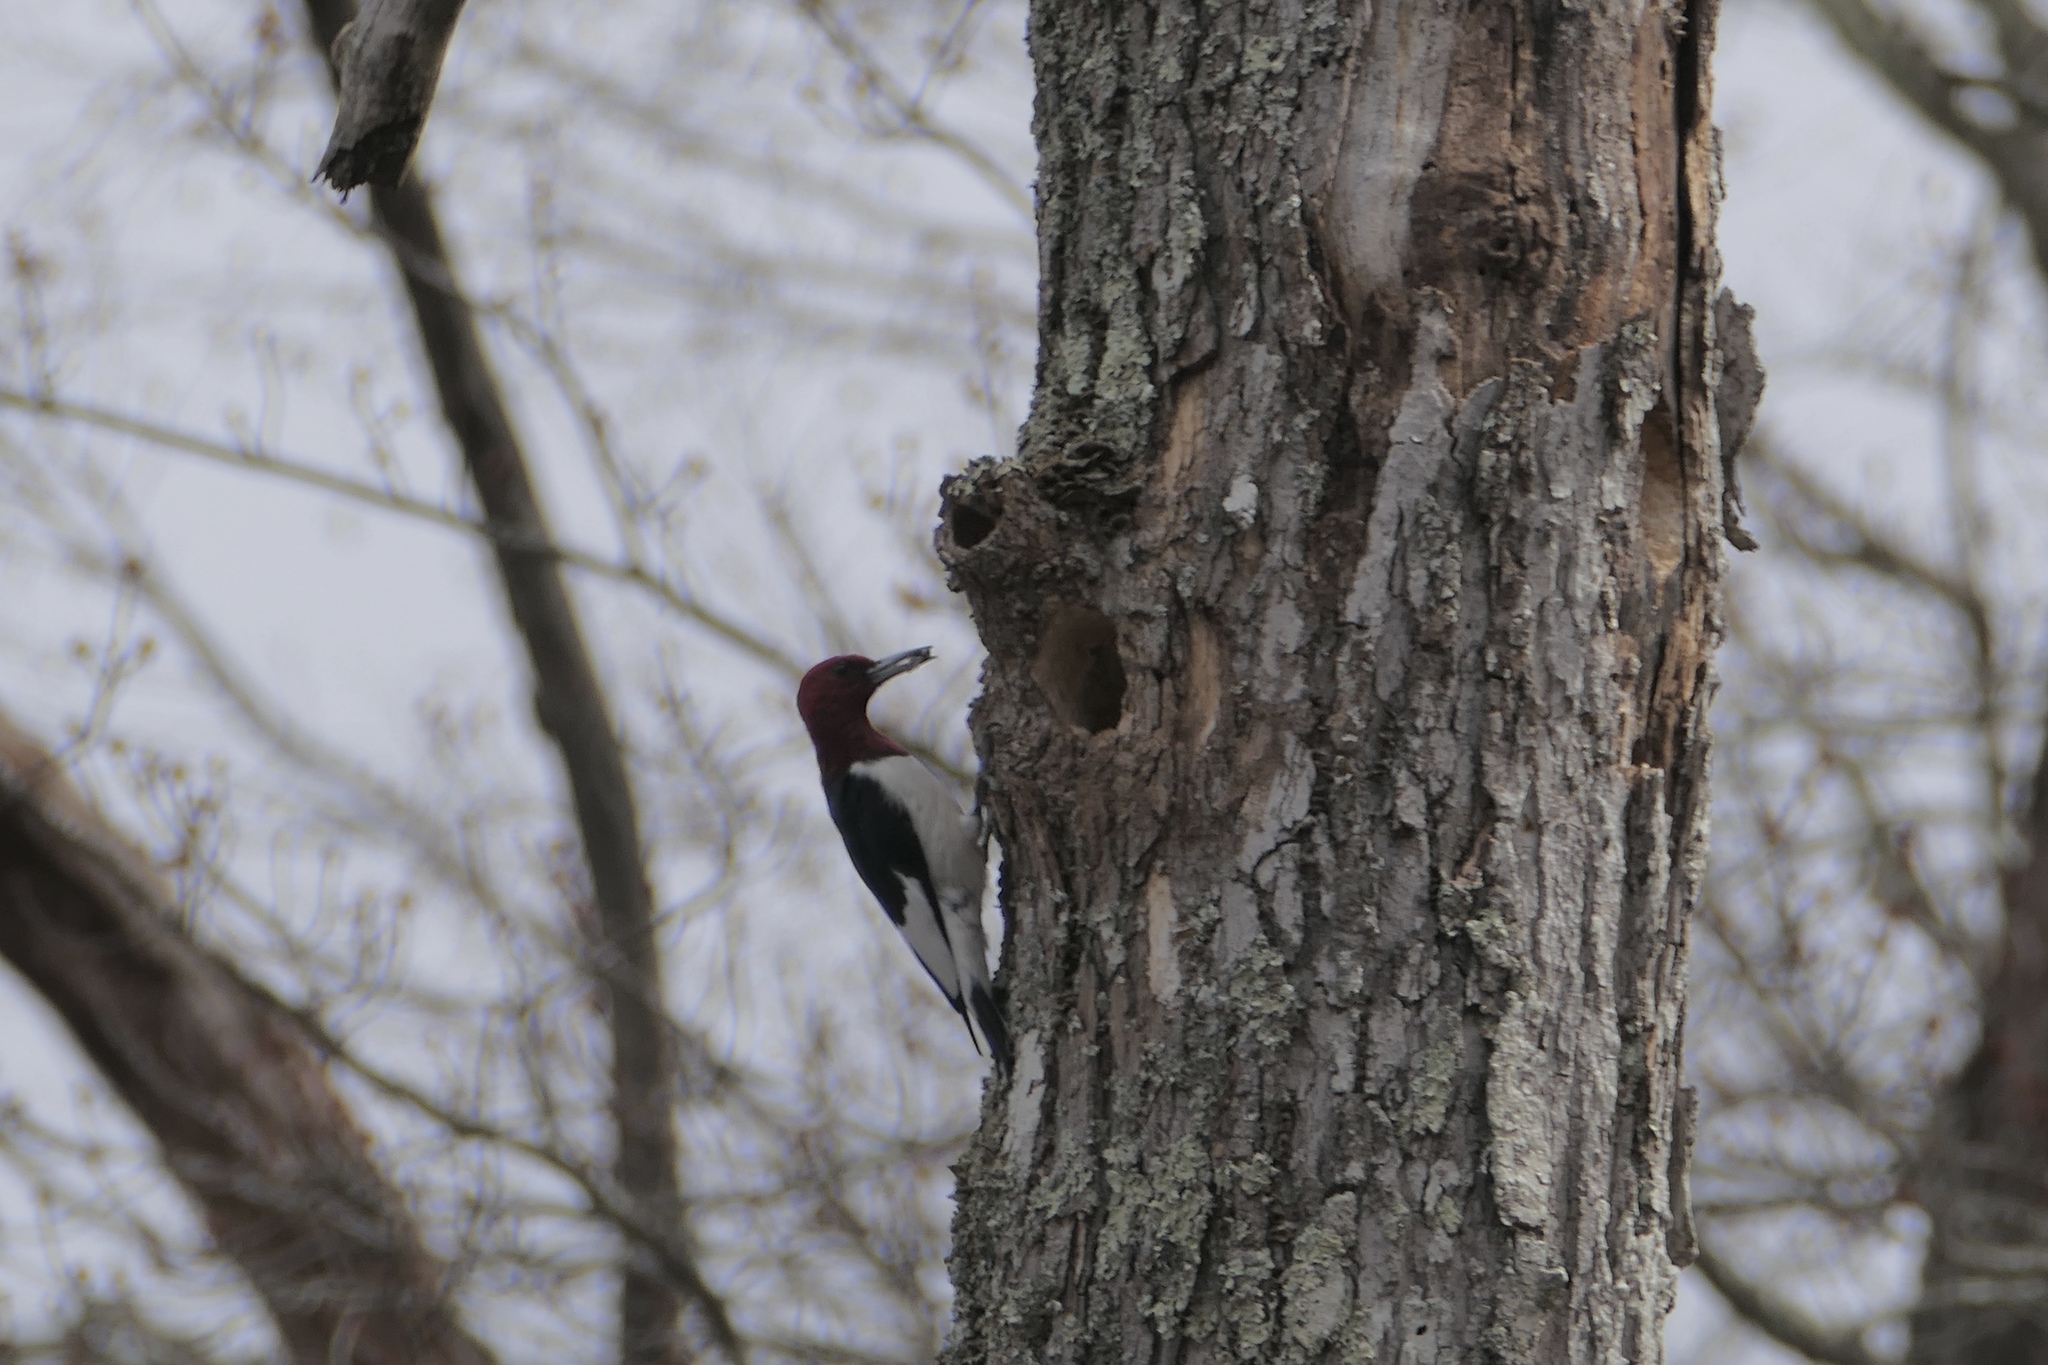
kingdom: Animalia
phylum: Chordata
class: Aves
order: Piciformes
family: Picidae
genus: Melanerpes
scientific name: Melanerpes erythrocephalus
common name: Red-headed woodpecker
